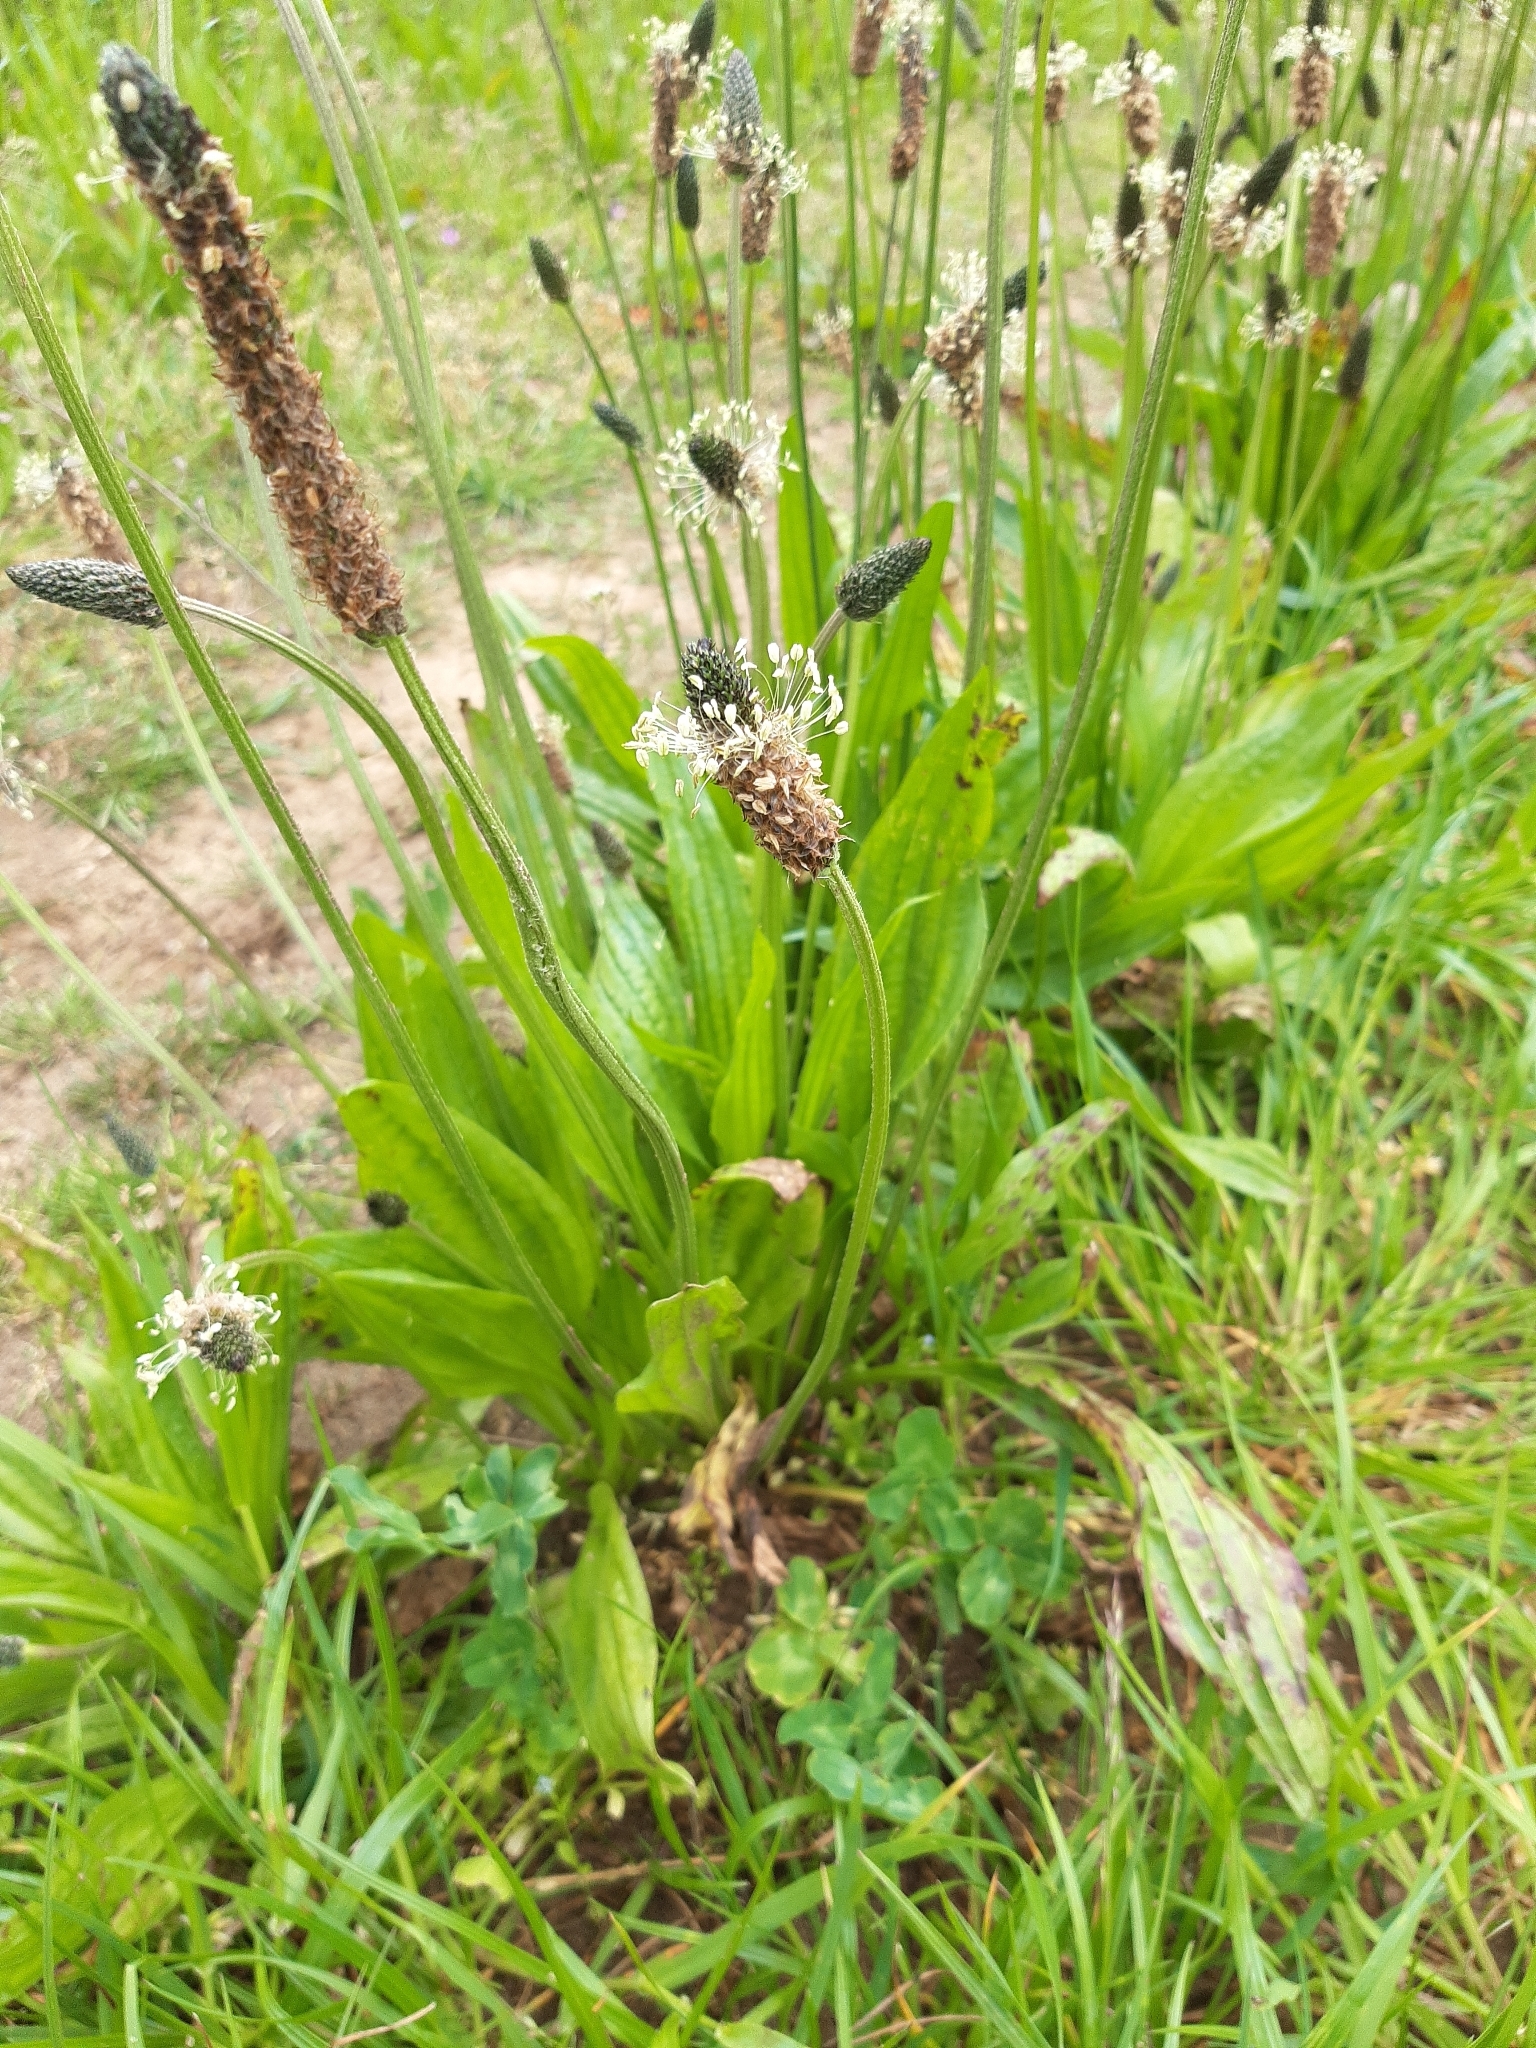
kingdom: Plantae
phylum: Tracheophyta
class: Magnoliopsida
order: Lamiales
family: Plantaginaceae
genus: Plantago
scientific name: Plantago lanceolata
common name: Ribwort plantain
